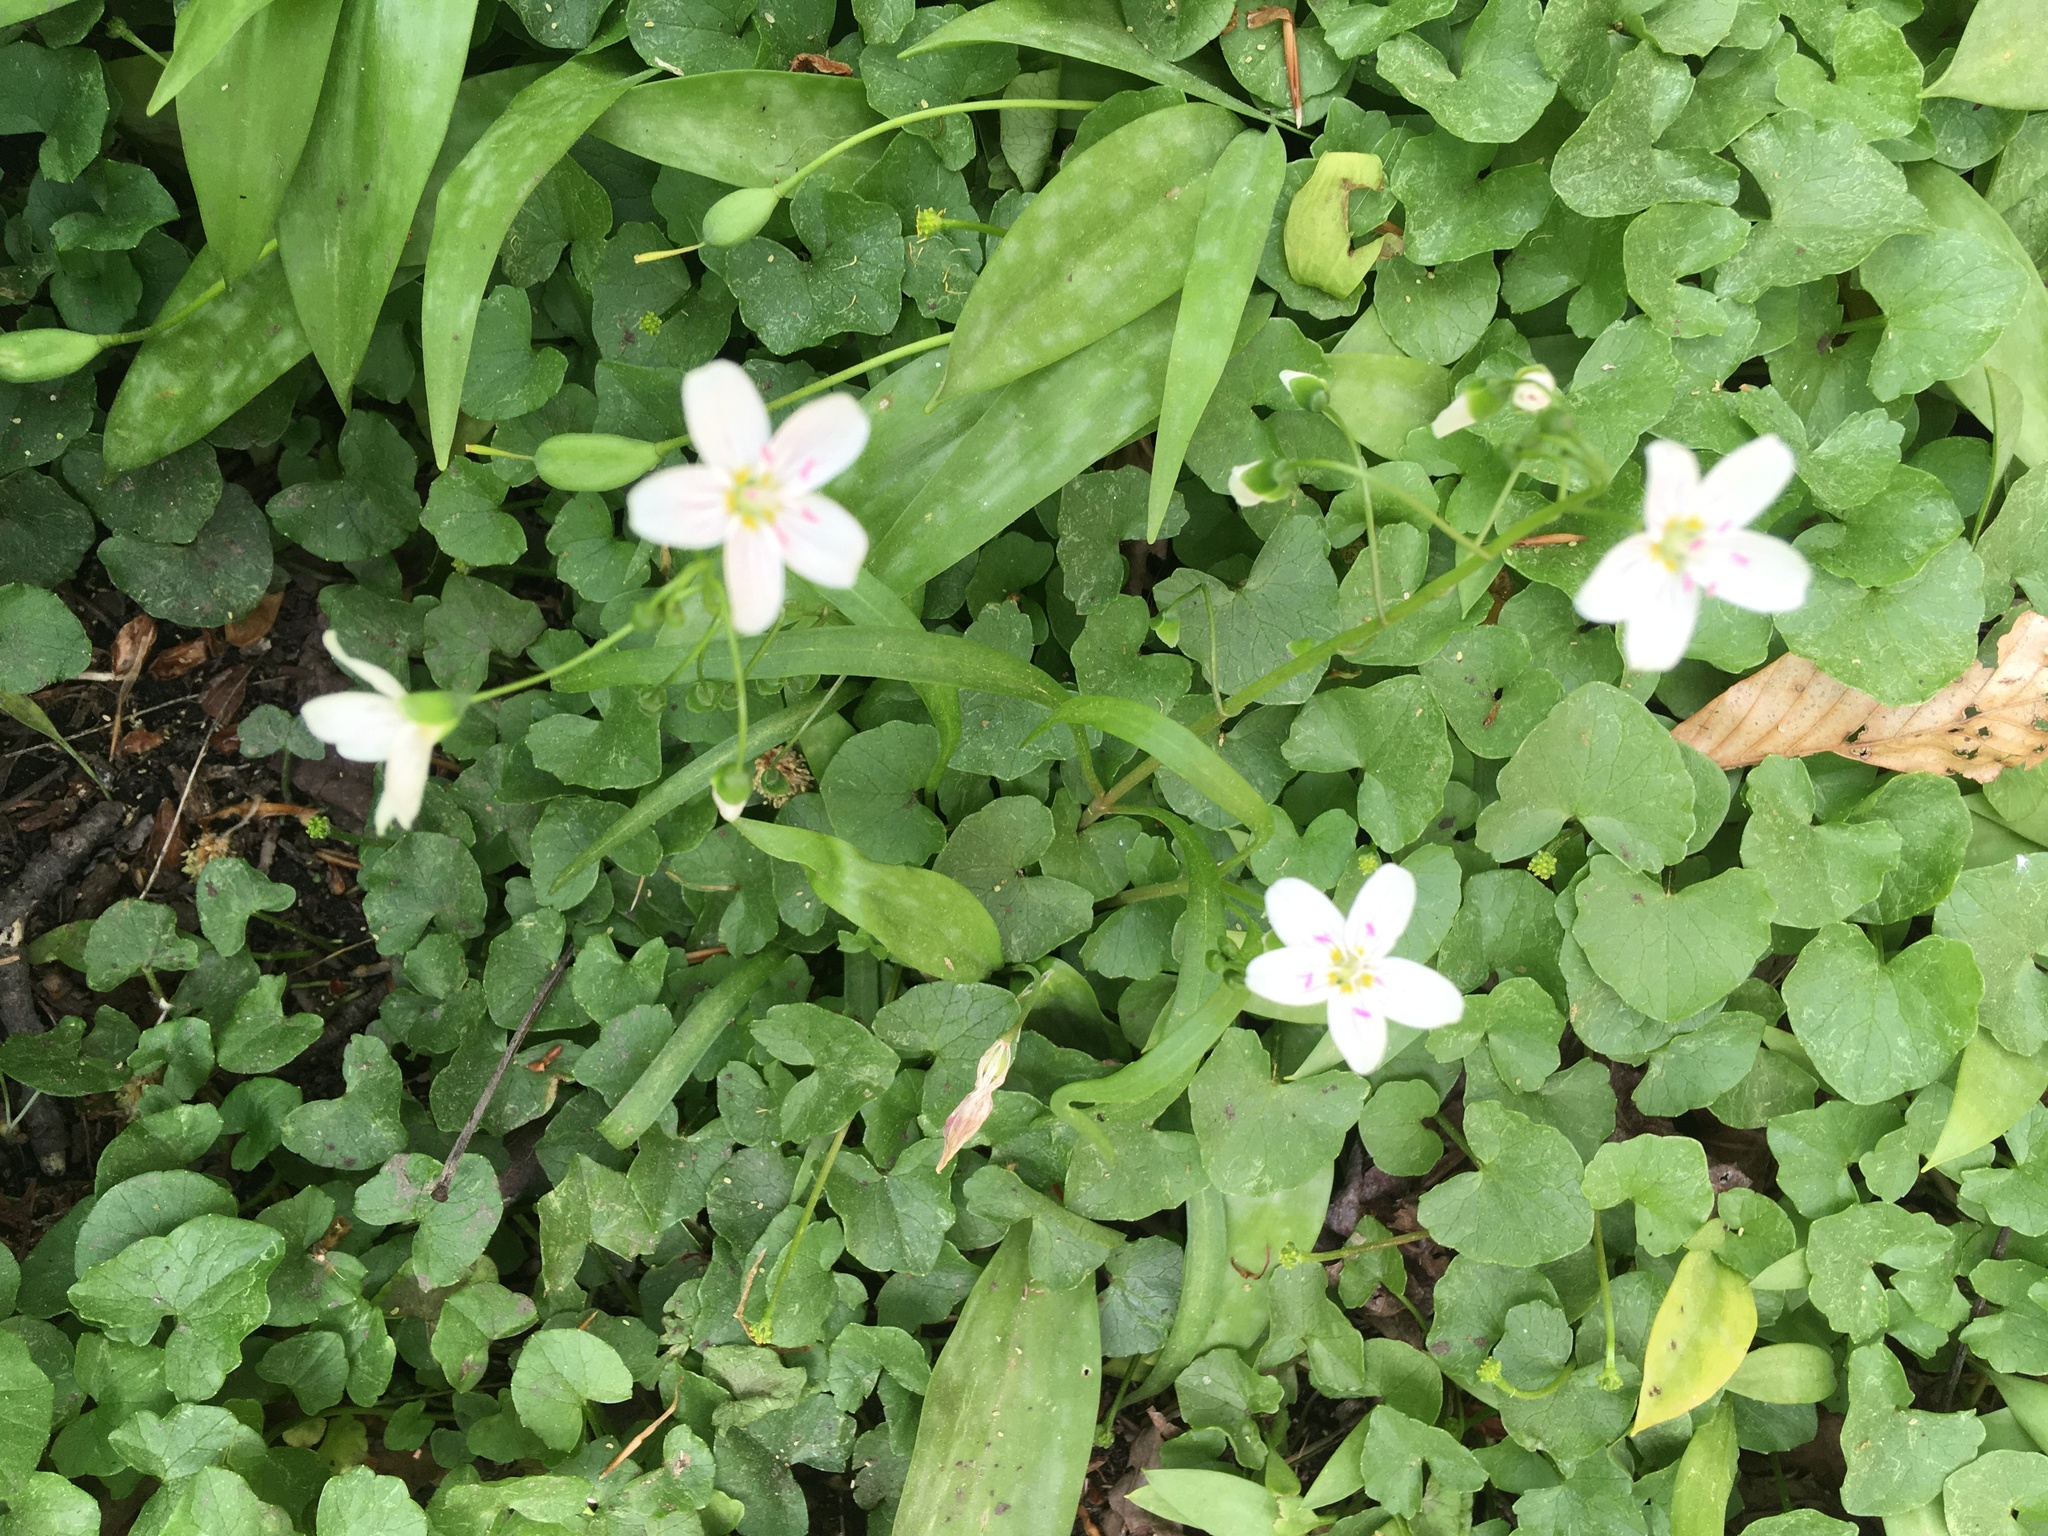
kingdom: Plantae
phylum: Tracheophyta
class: Magnoliopsida
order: Caryophyllales
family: Montiaceae
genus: Claytonia
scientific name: Claytonia virginica
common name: Virginia springbeauty
